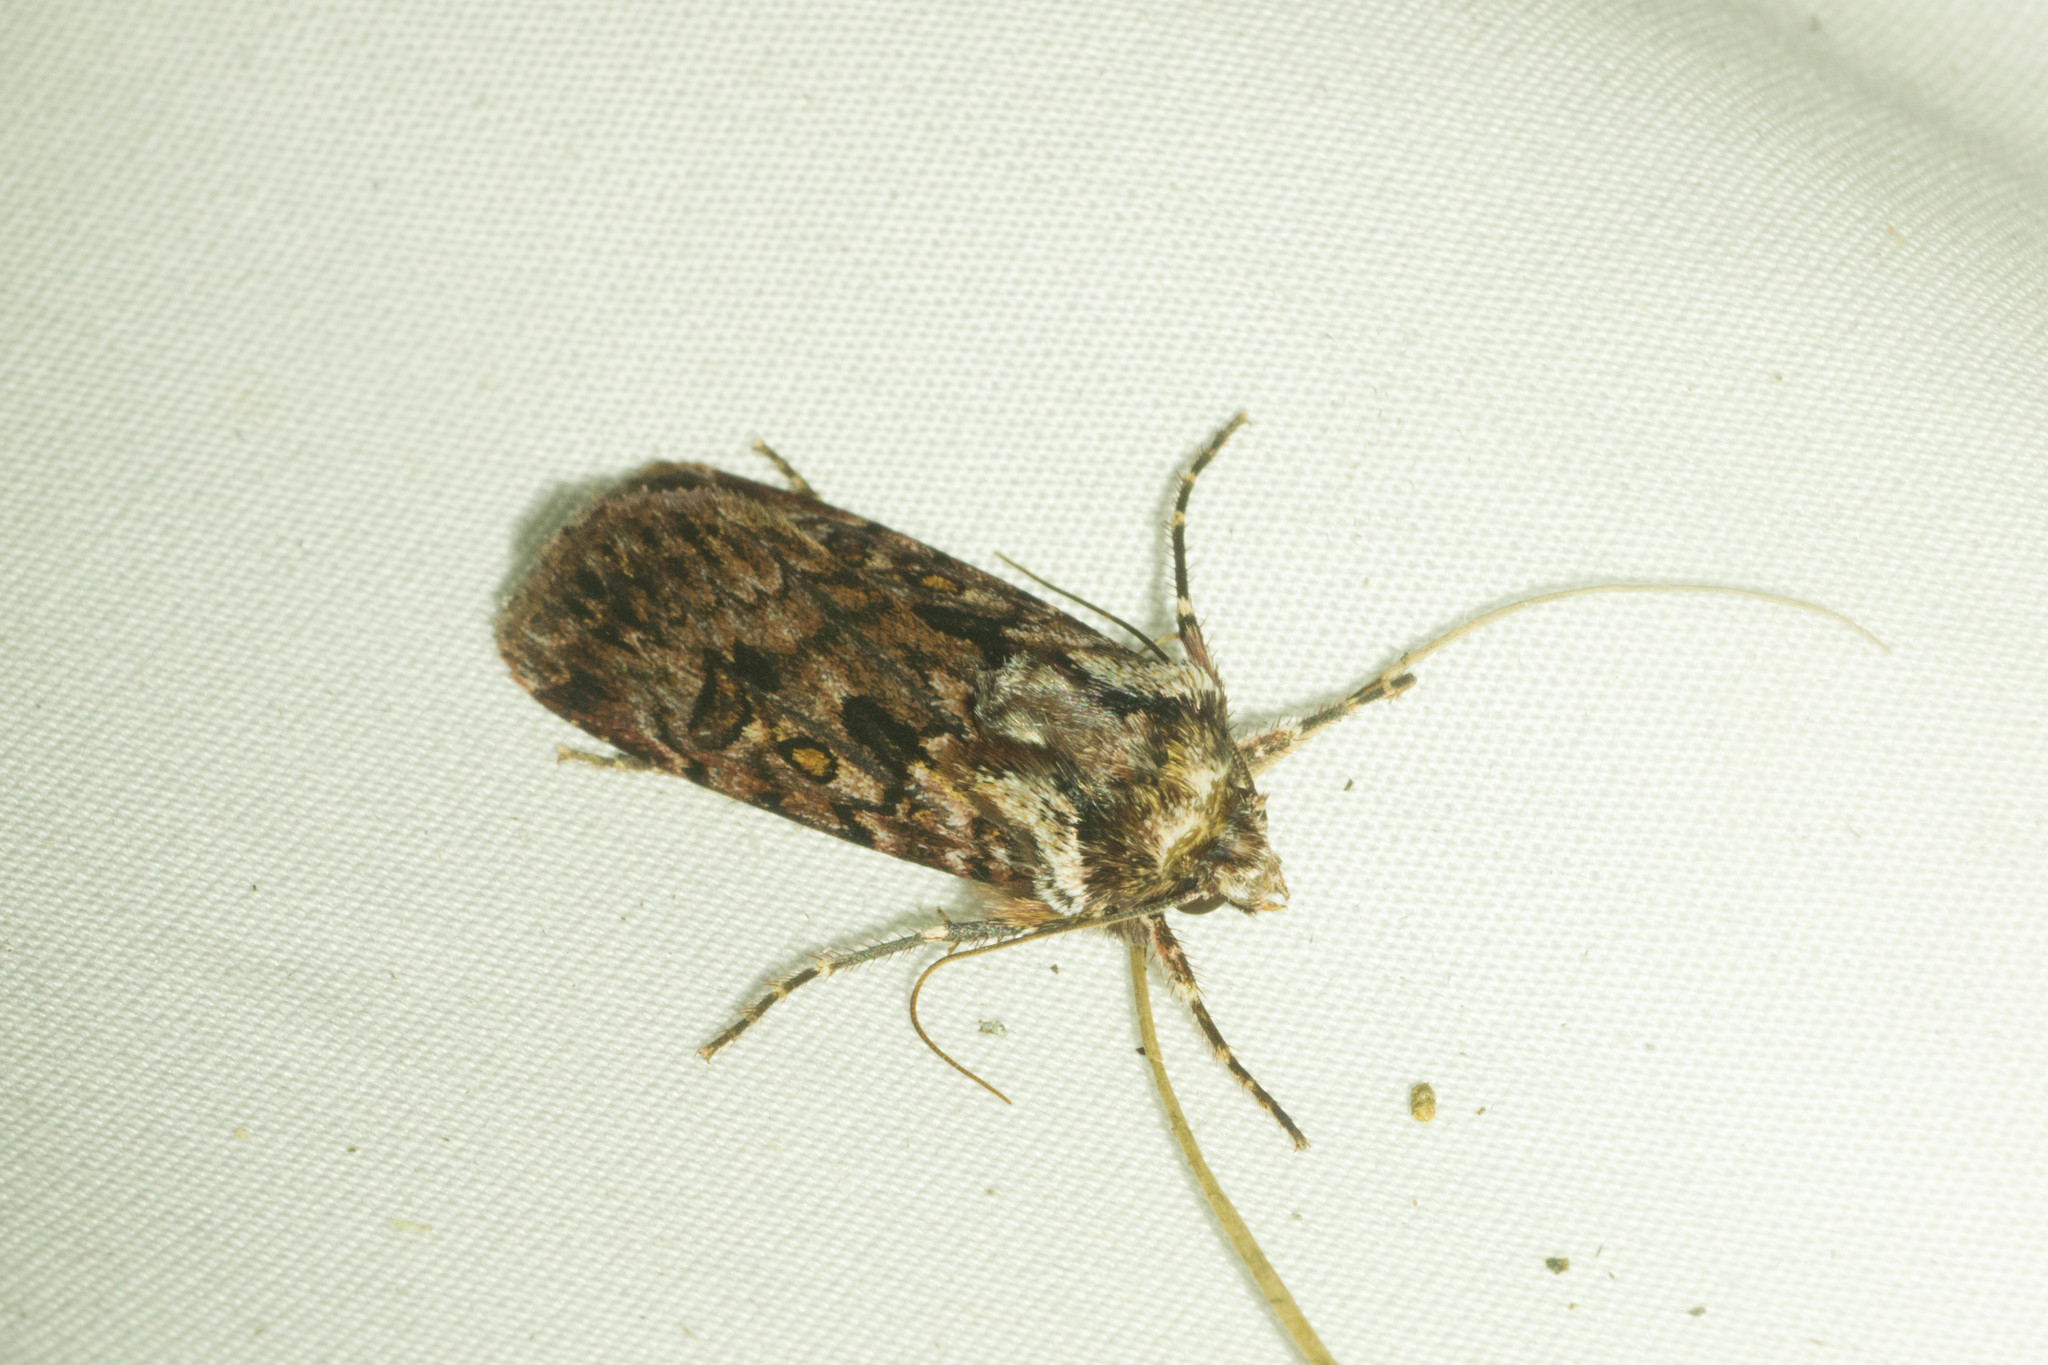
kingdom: Animalia
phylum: Arthropoda
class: Insecta
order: Lepidoptera
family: Noctuidae
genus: Agrotis
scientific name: Agrotis charmocrita
